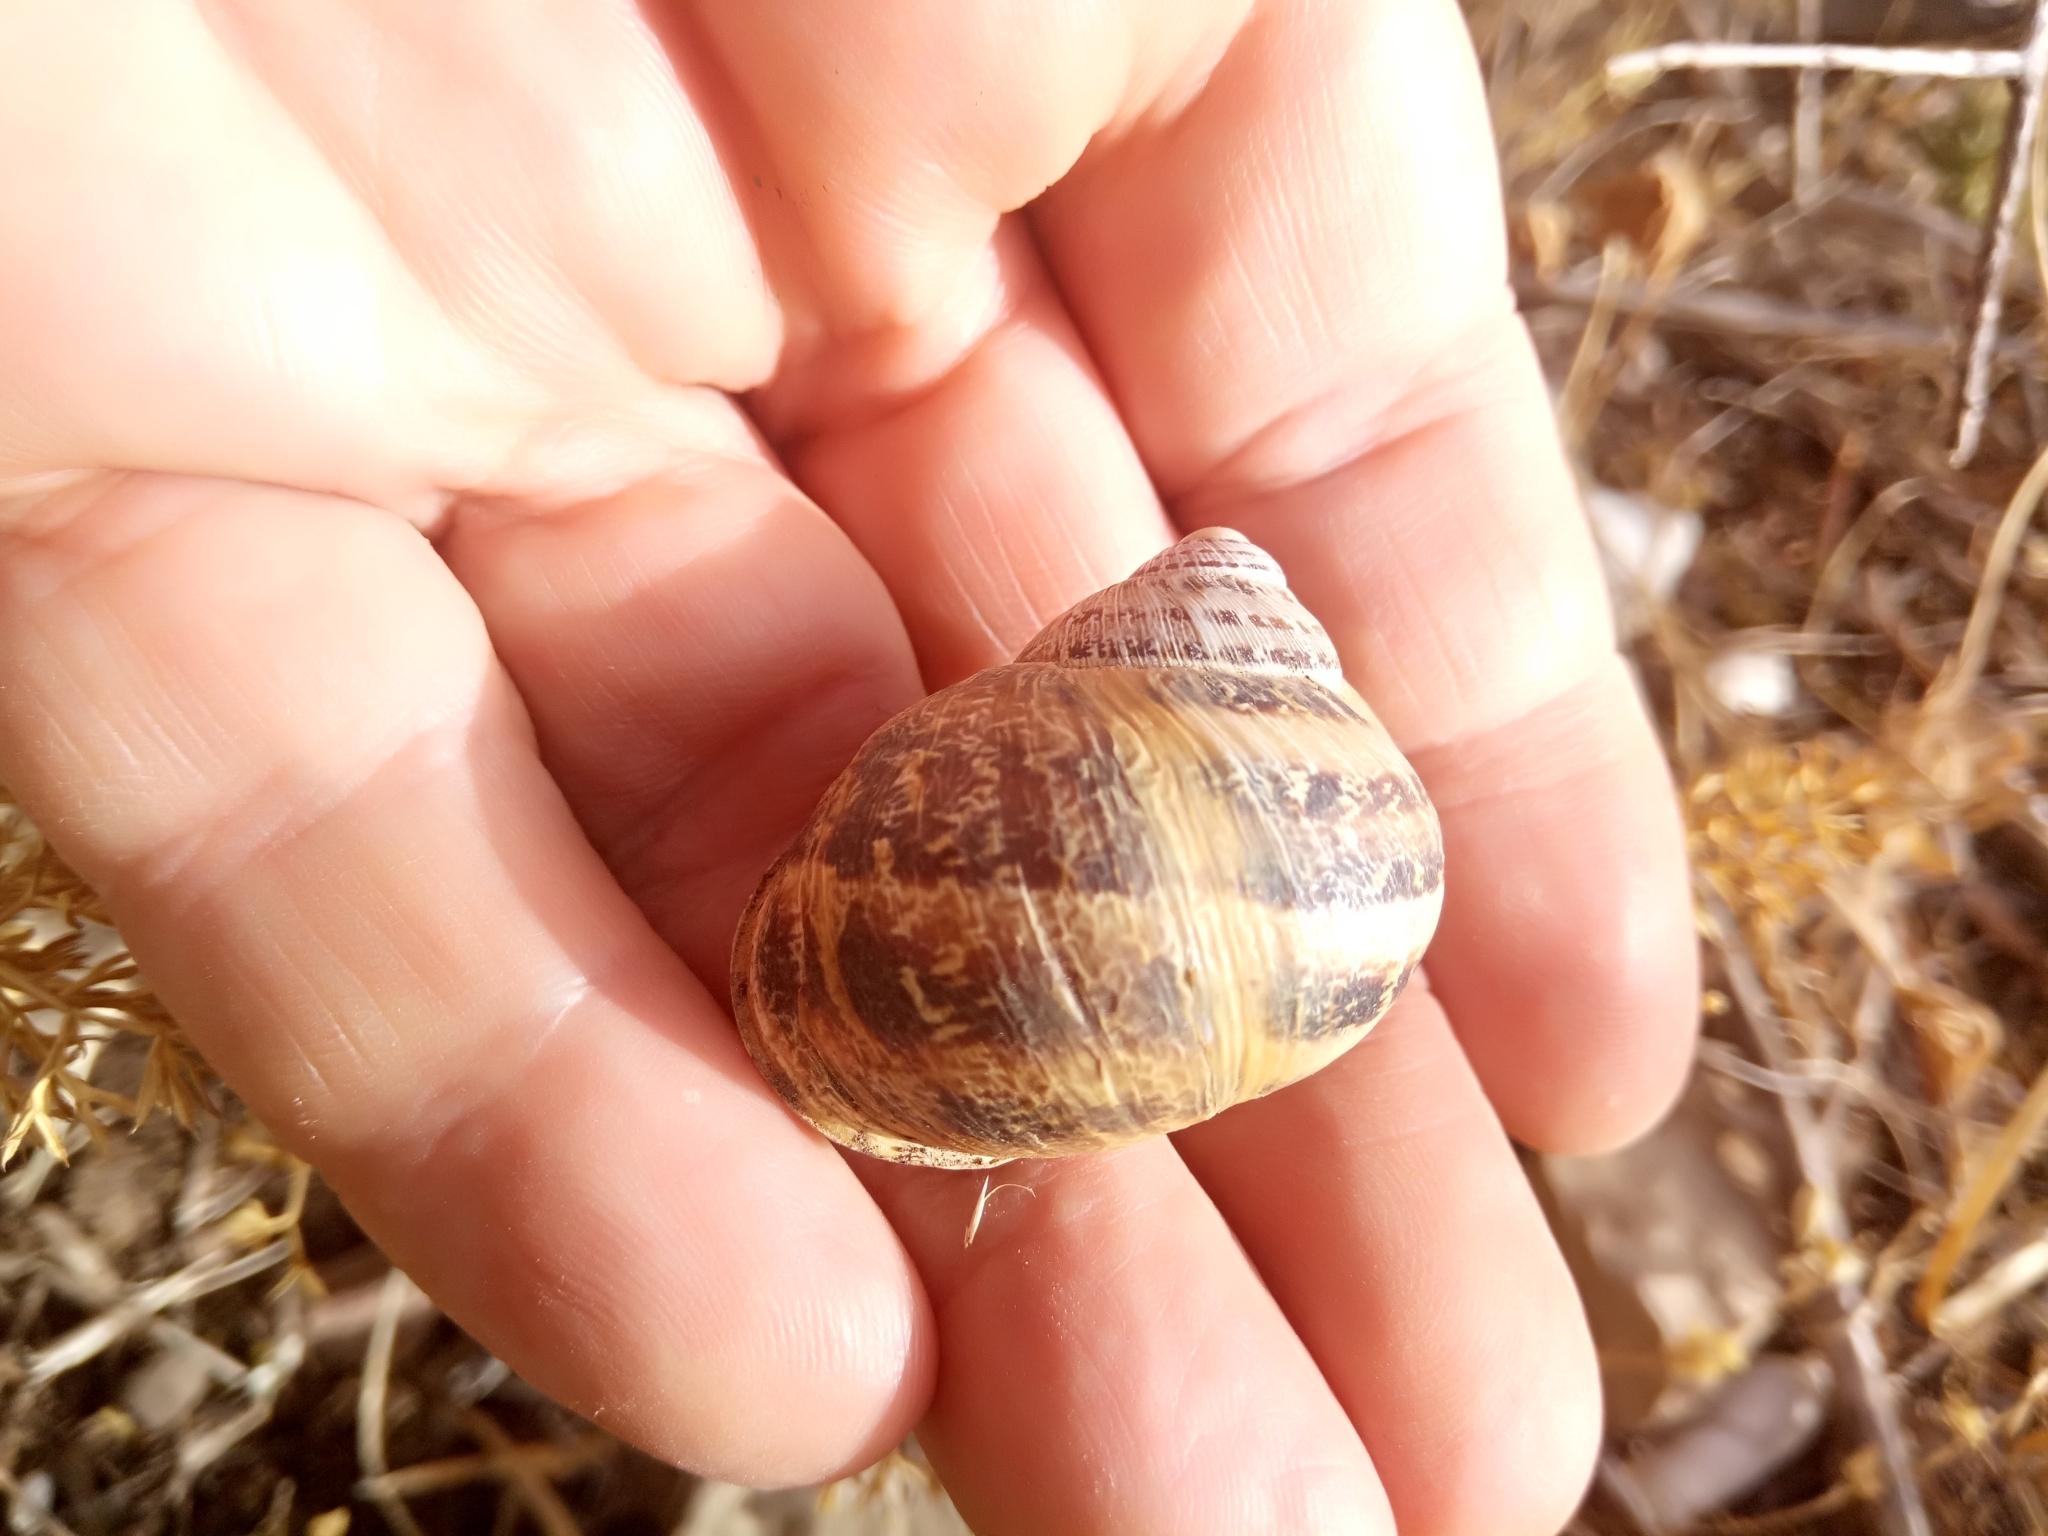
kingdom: Animalia
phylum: Mollusca
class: Gastropoda
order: Stylommatophora
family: Helicidae
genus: Cornu
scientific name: Cornu aspersum
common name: Brown garden snail
